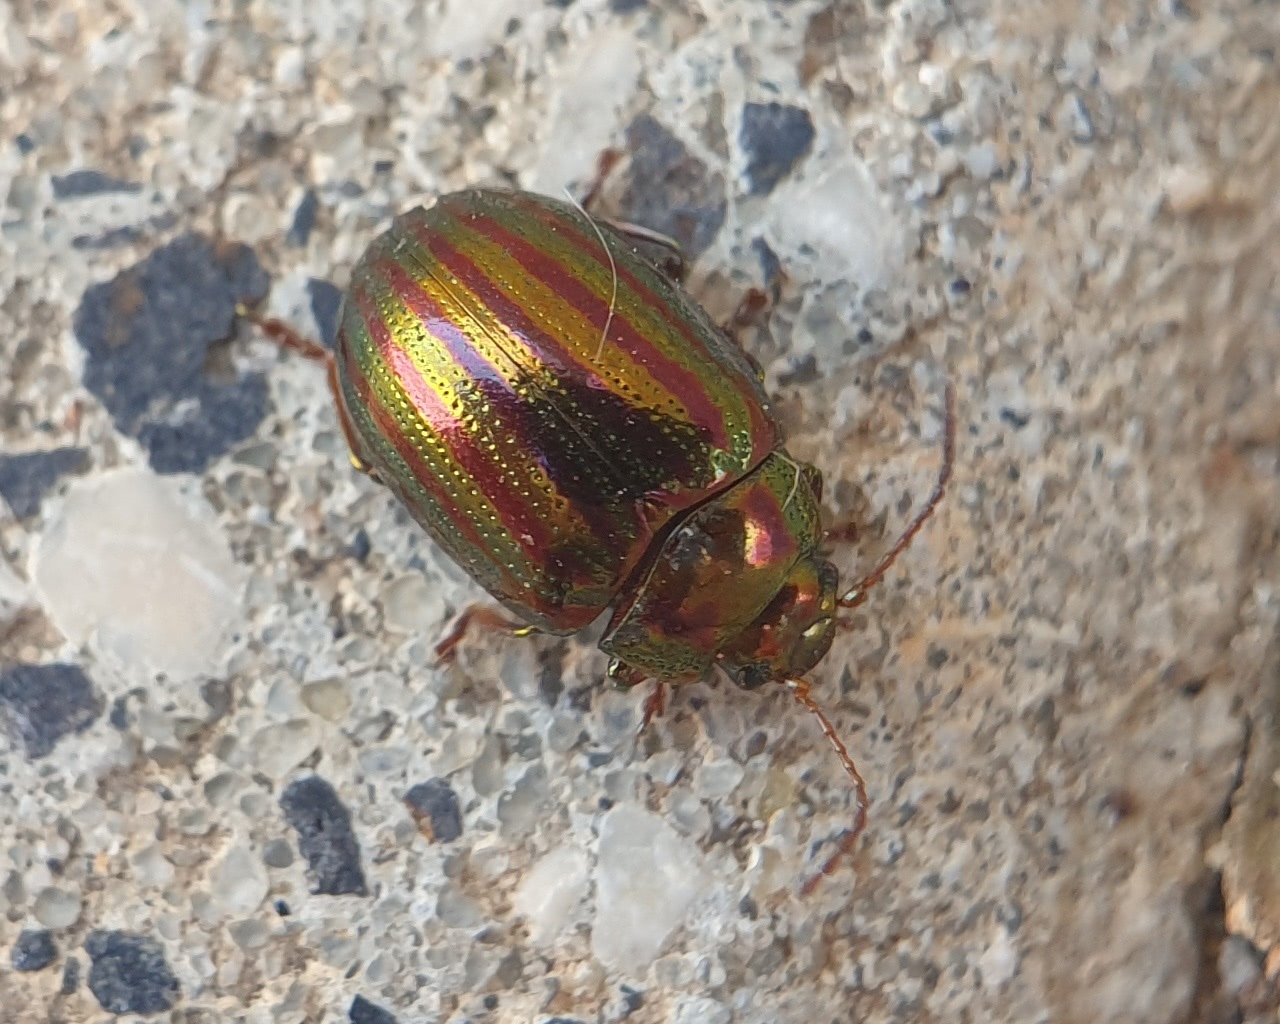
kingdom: Animalia
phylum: Arthropoda
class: Insecta
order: Coleoptera
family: Chrysomelidae
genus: Chrysolina
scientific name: Chrysolina americana
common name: Rosemary beetle
